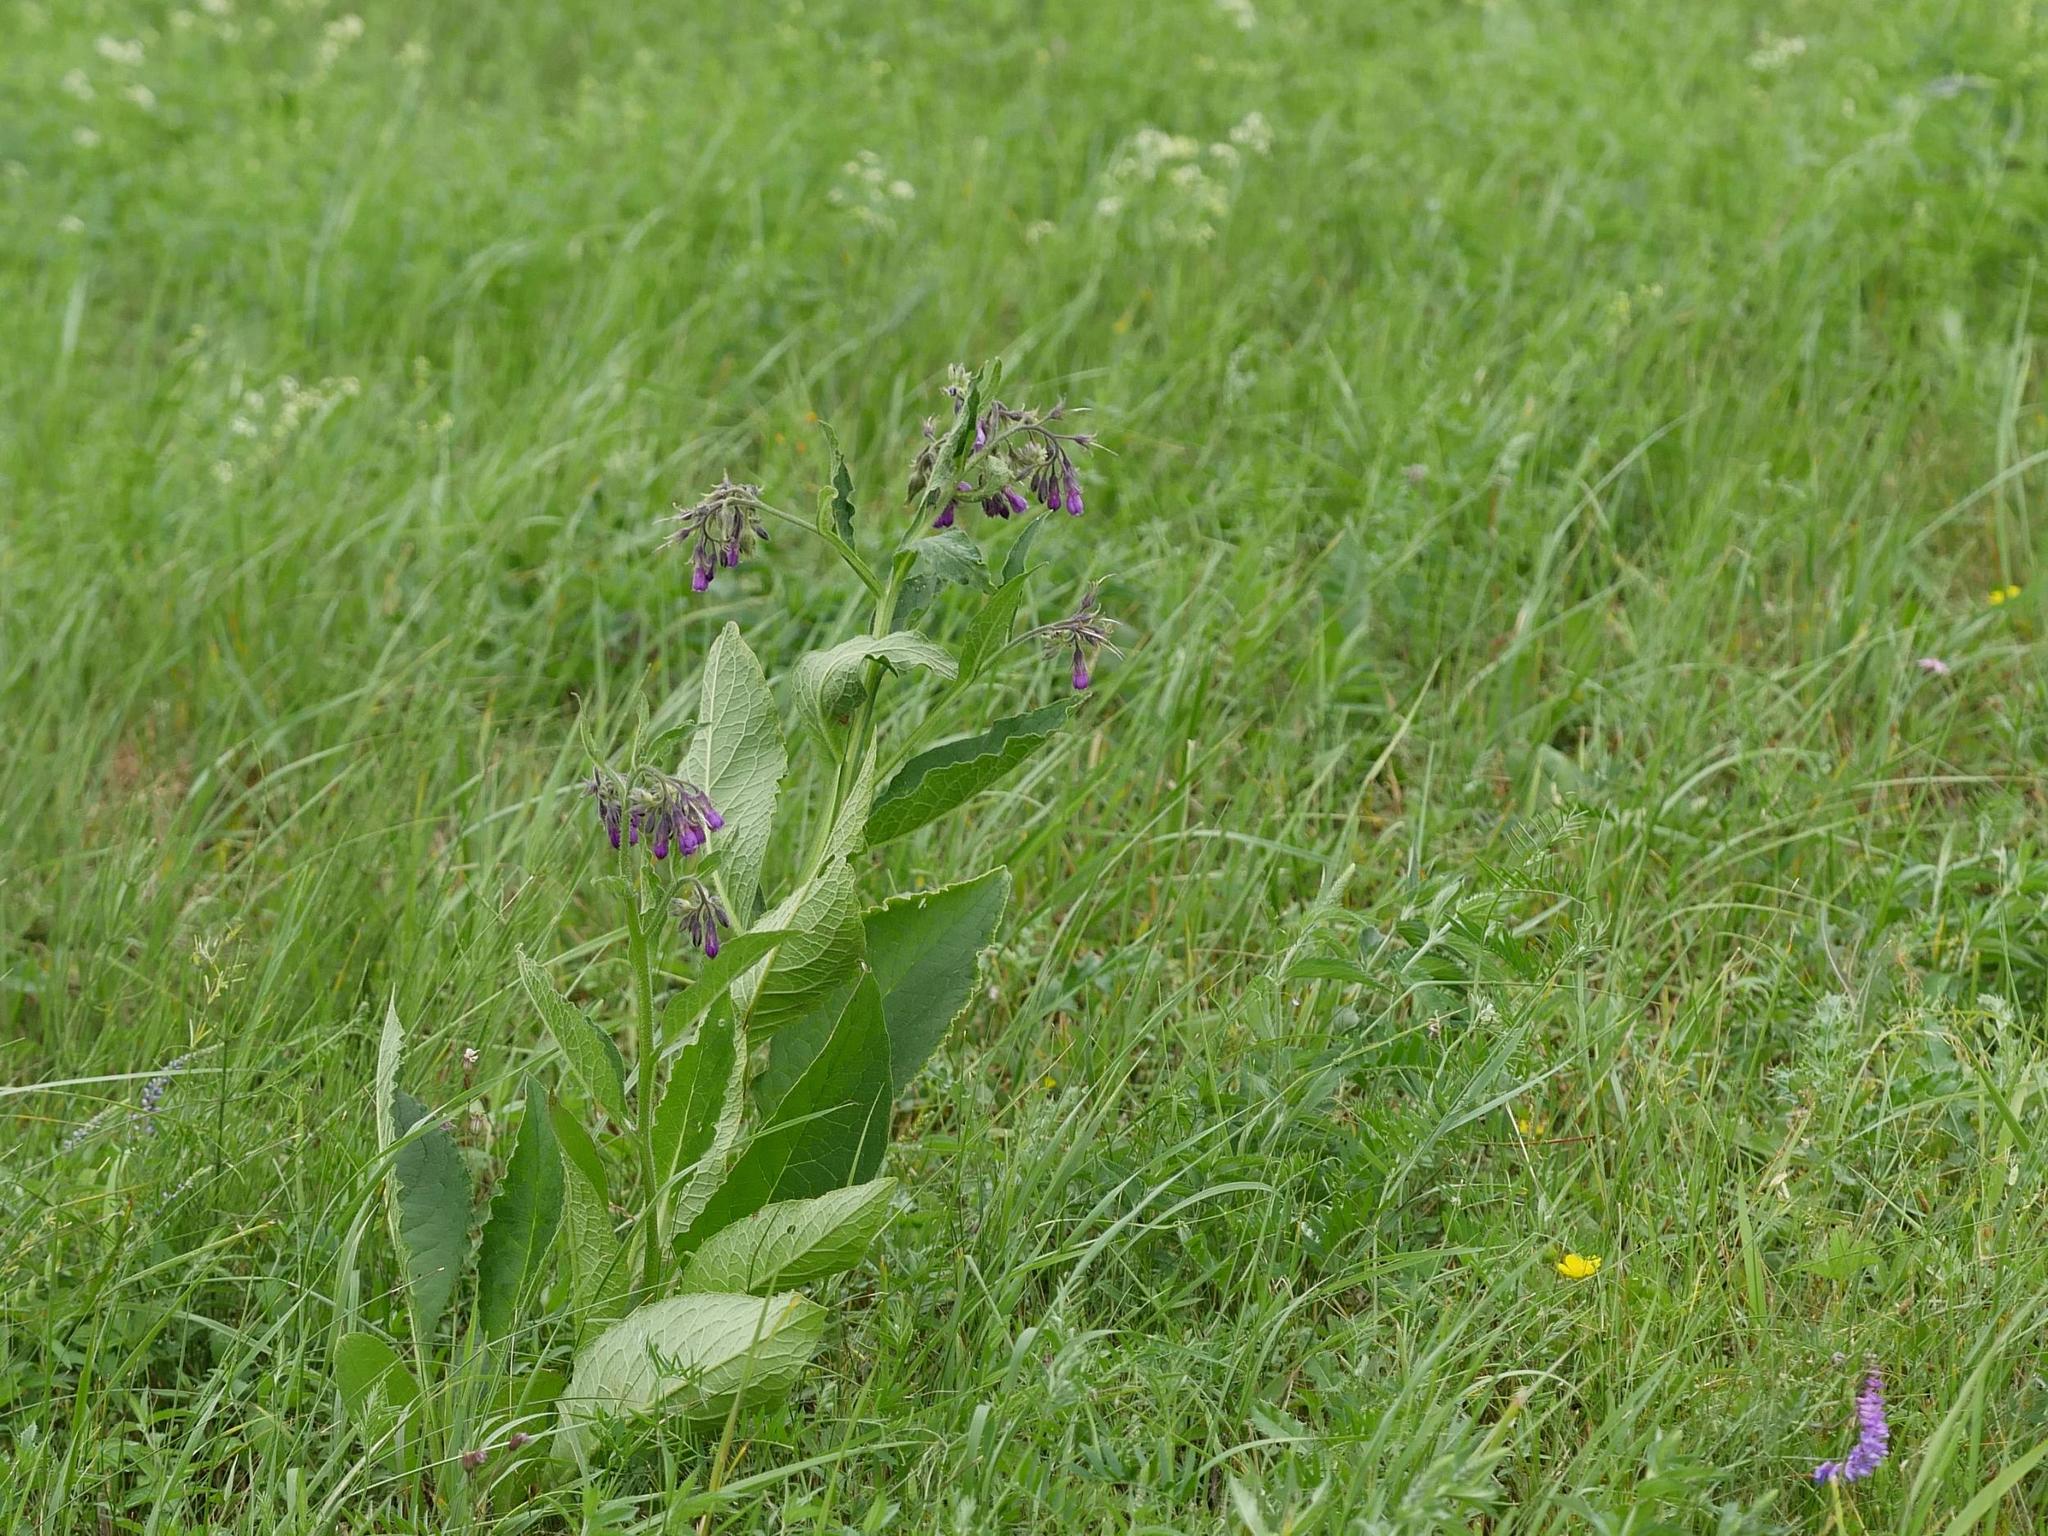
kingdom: Plantae
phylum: Tracheophyta
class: Magnoliopsida
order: Boraginales
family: Boraginaceae
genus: Symphytum
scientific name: Symphytum officinale
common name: Common comfrey
